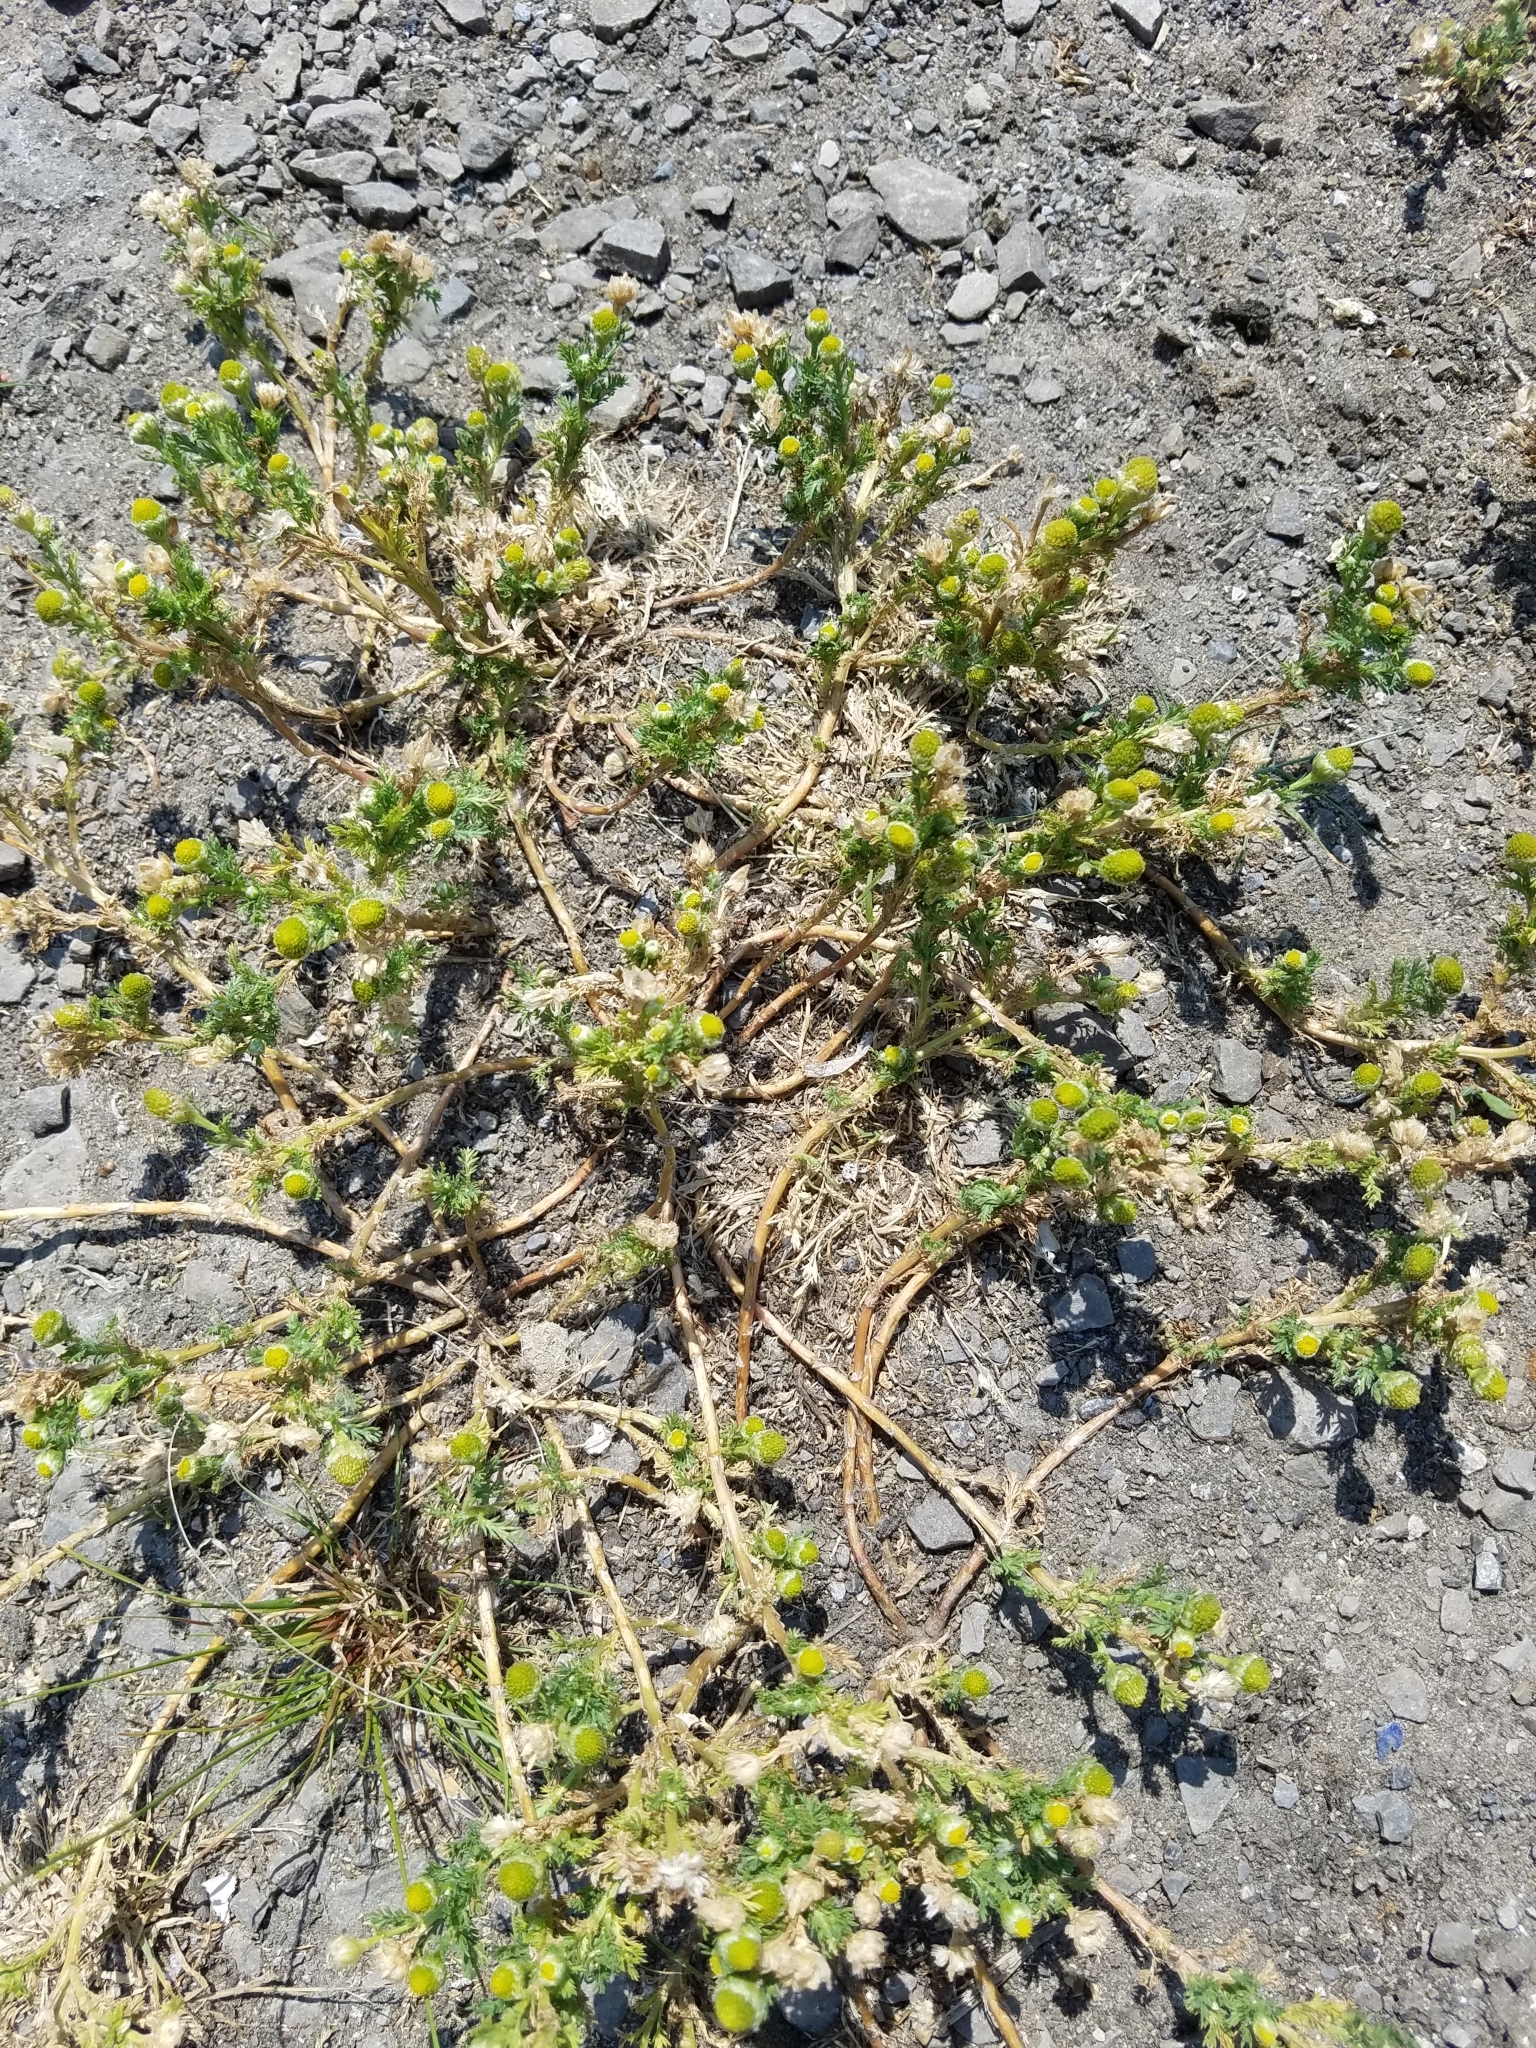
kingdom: Plantae
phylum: Tracheophyta
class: Magnoliopsida
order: Asterales
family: Asteraceae
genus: Matricaria
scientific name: Matricaria discoidea
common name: Disc mayweed
